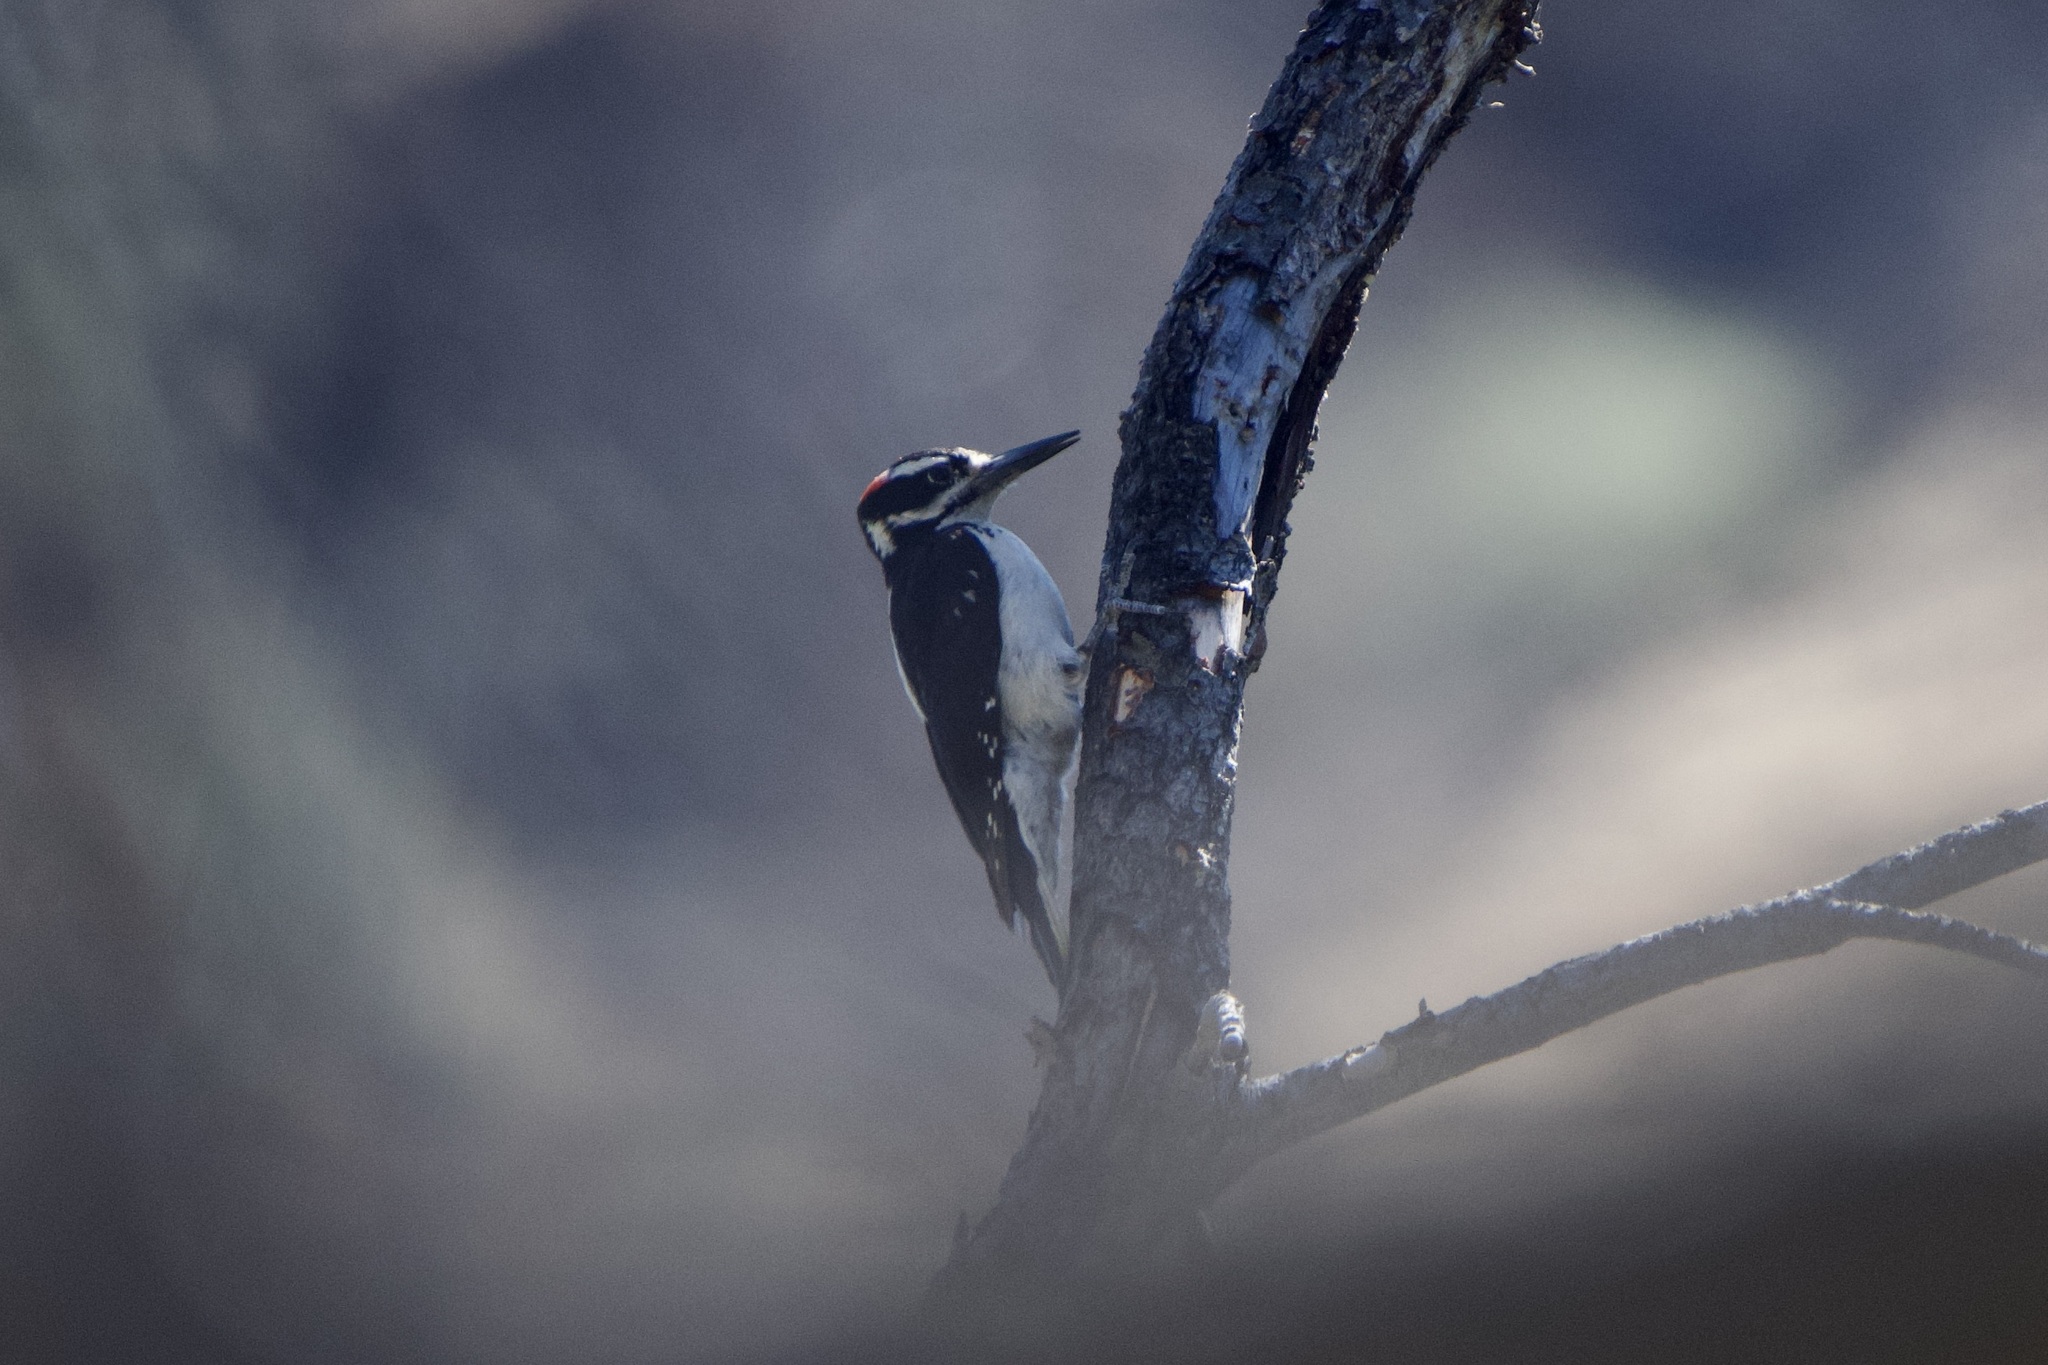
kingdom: Animalia
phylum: Chordata
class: Aves
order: Piciformes
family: Picidae
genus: Leuconotopicus
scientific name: Leuconotopicus villosus
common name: Hairy woodpecker
